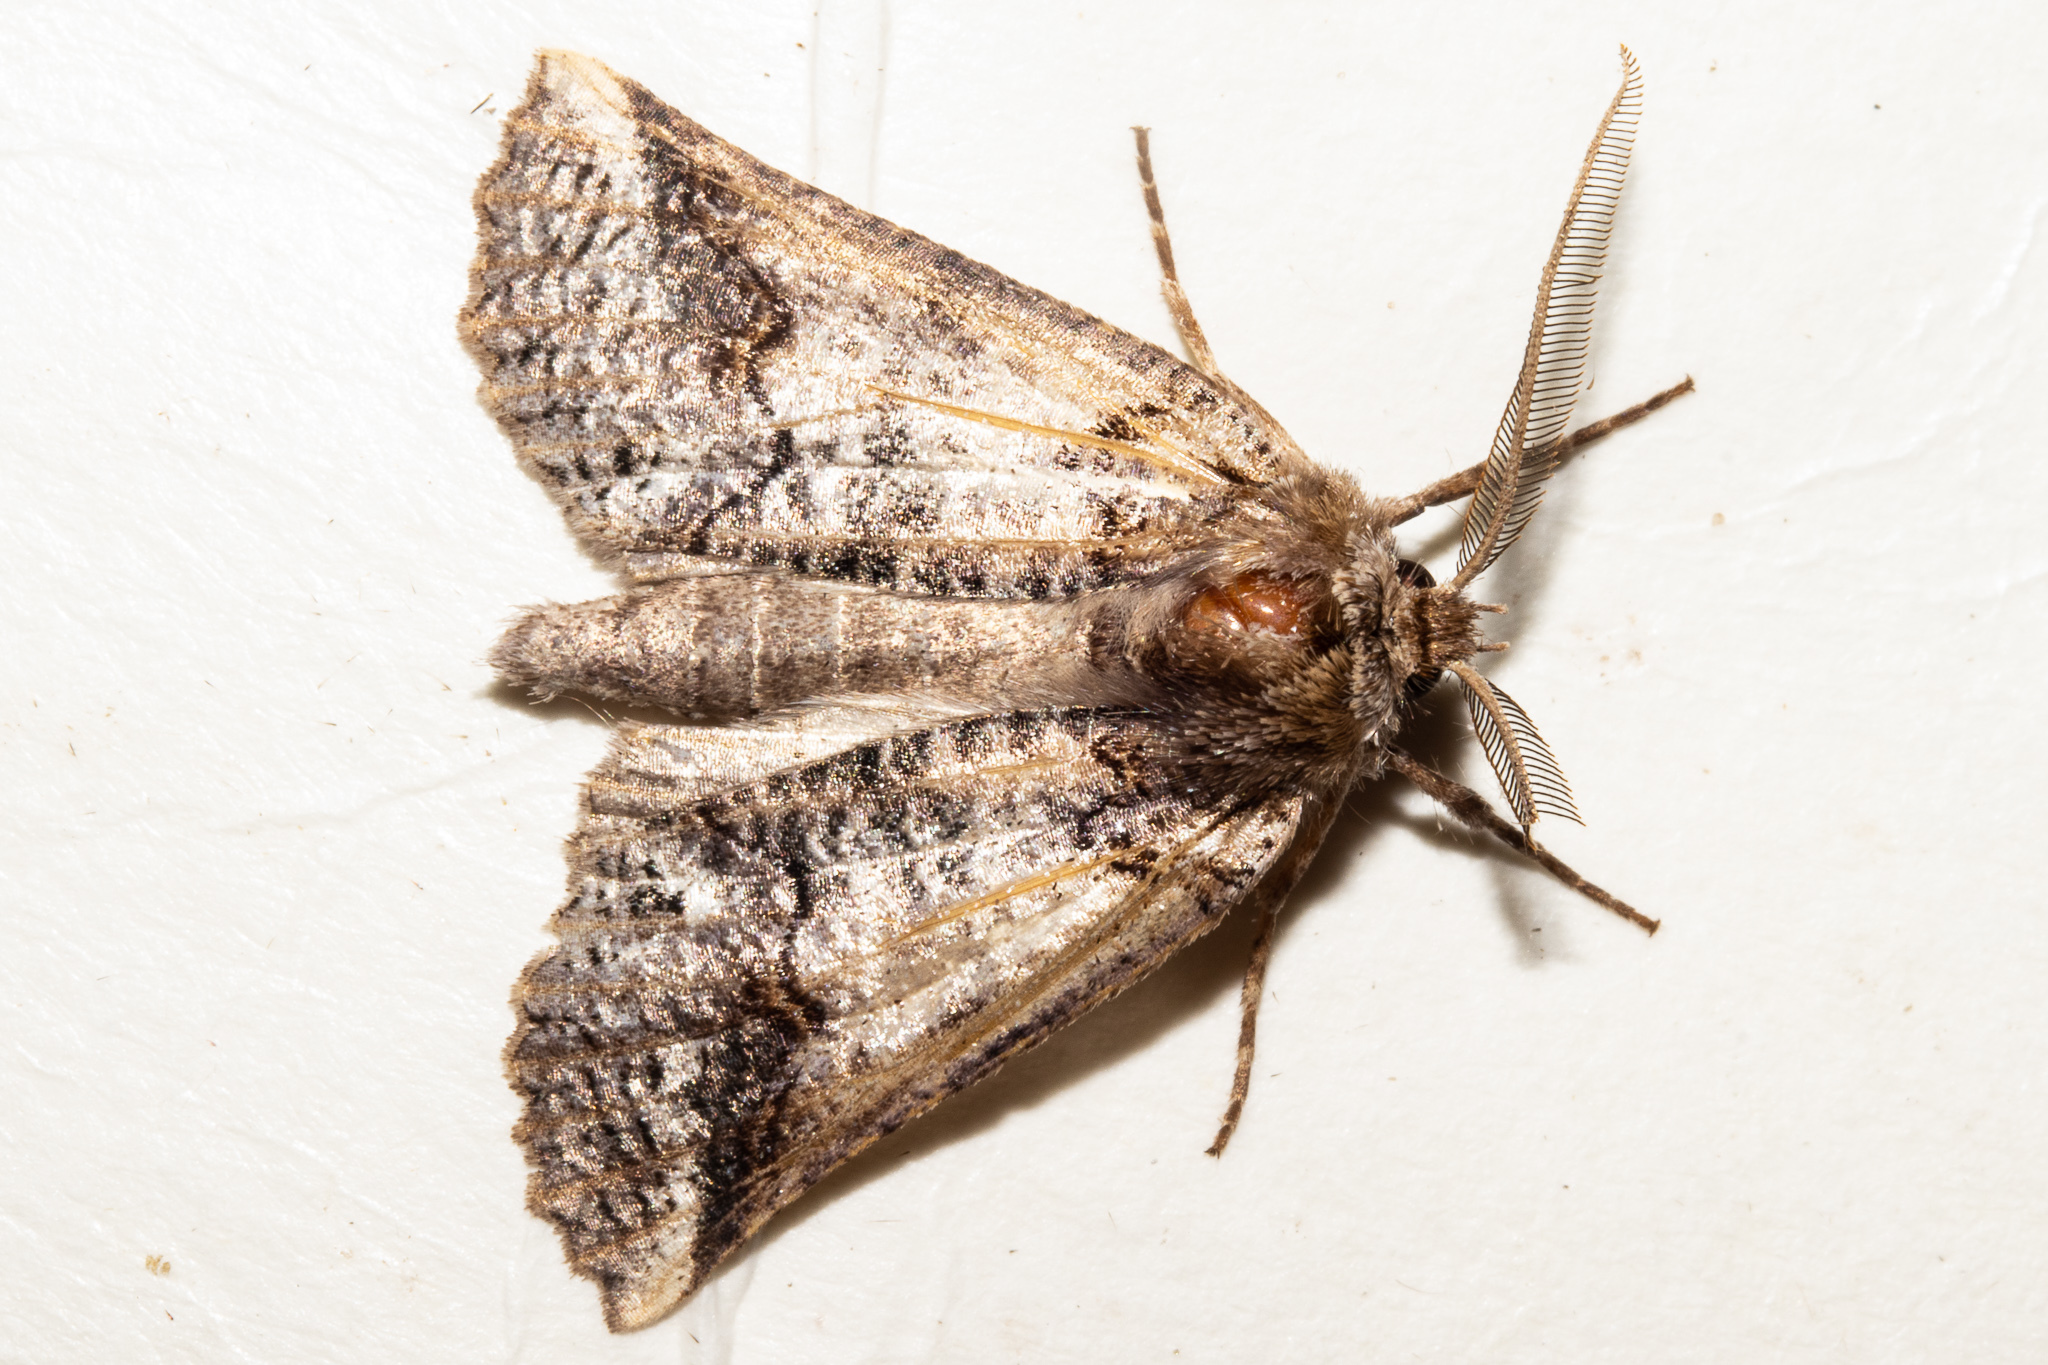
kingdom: Animalia
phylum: Arthropoda
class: Insecta
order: Lepidoptera
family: Geometridae
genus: Declana
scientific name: Declana
